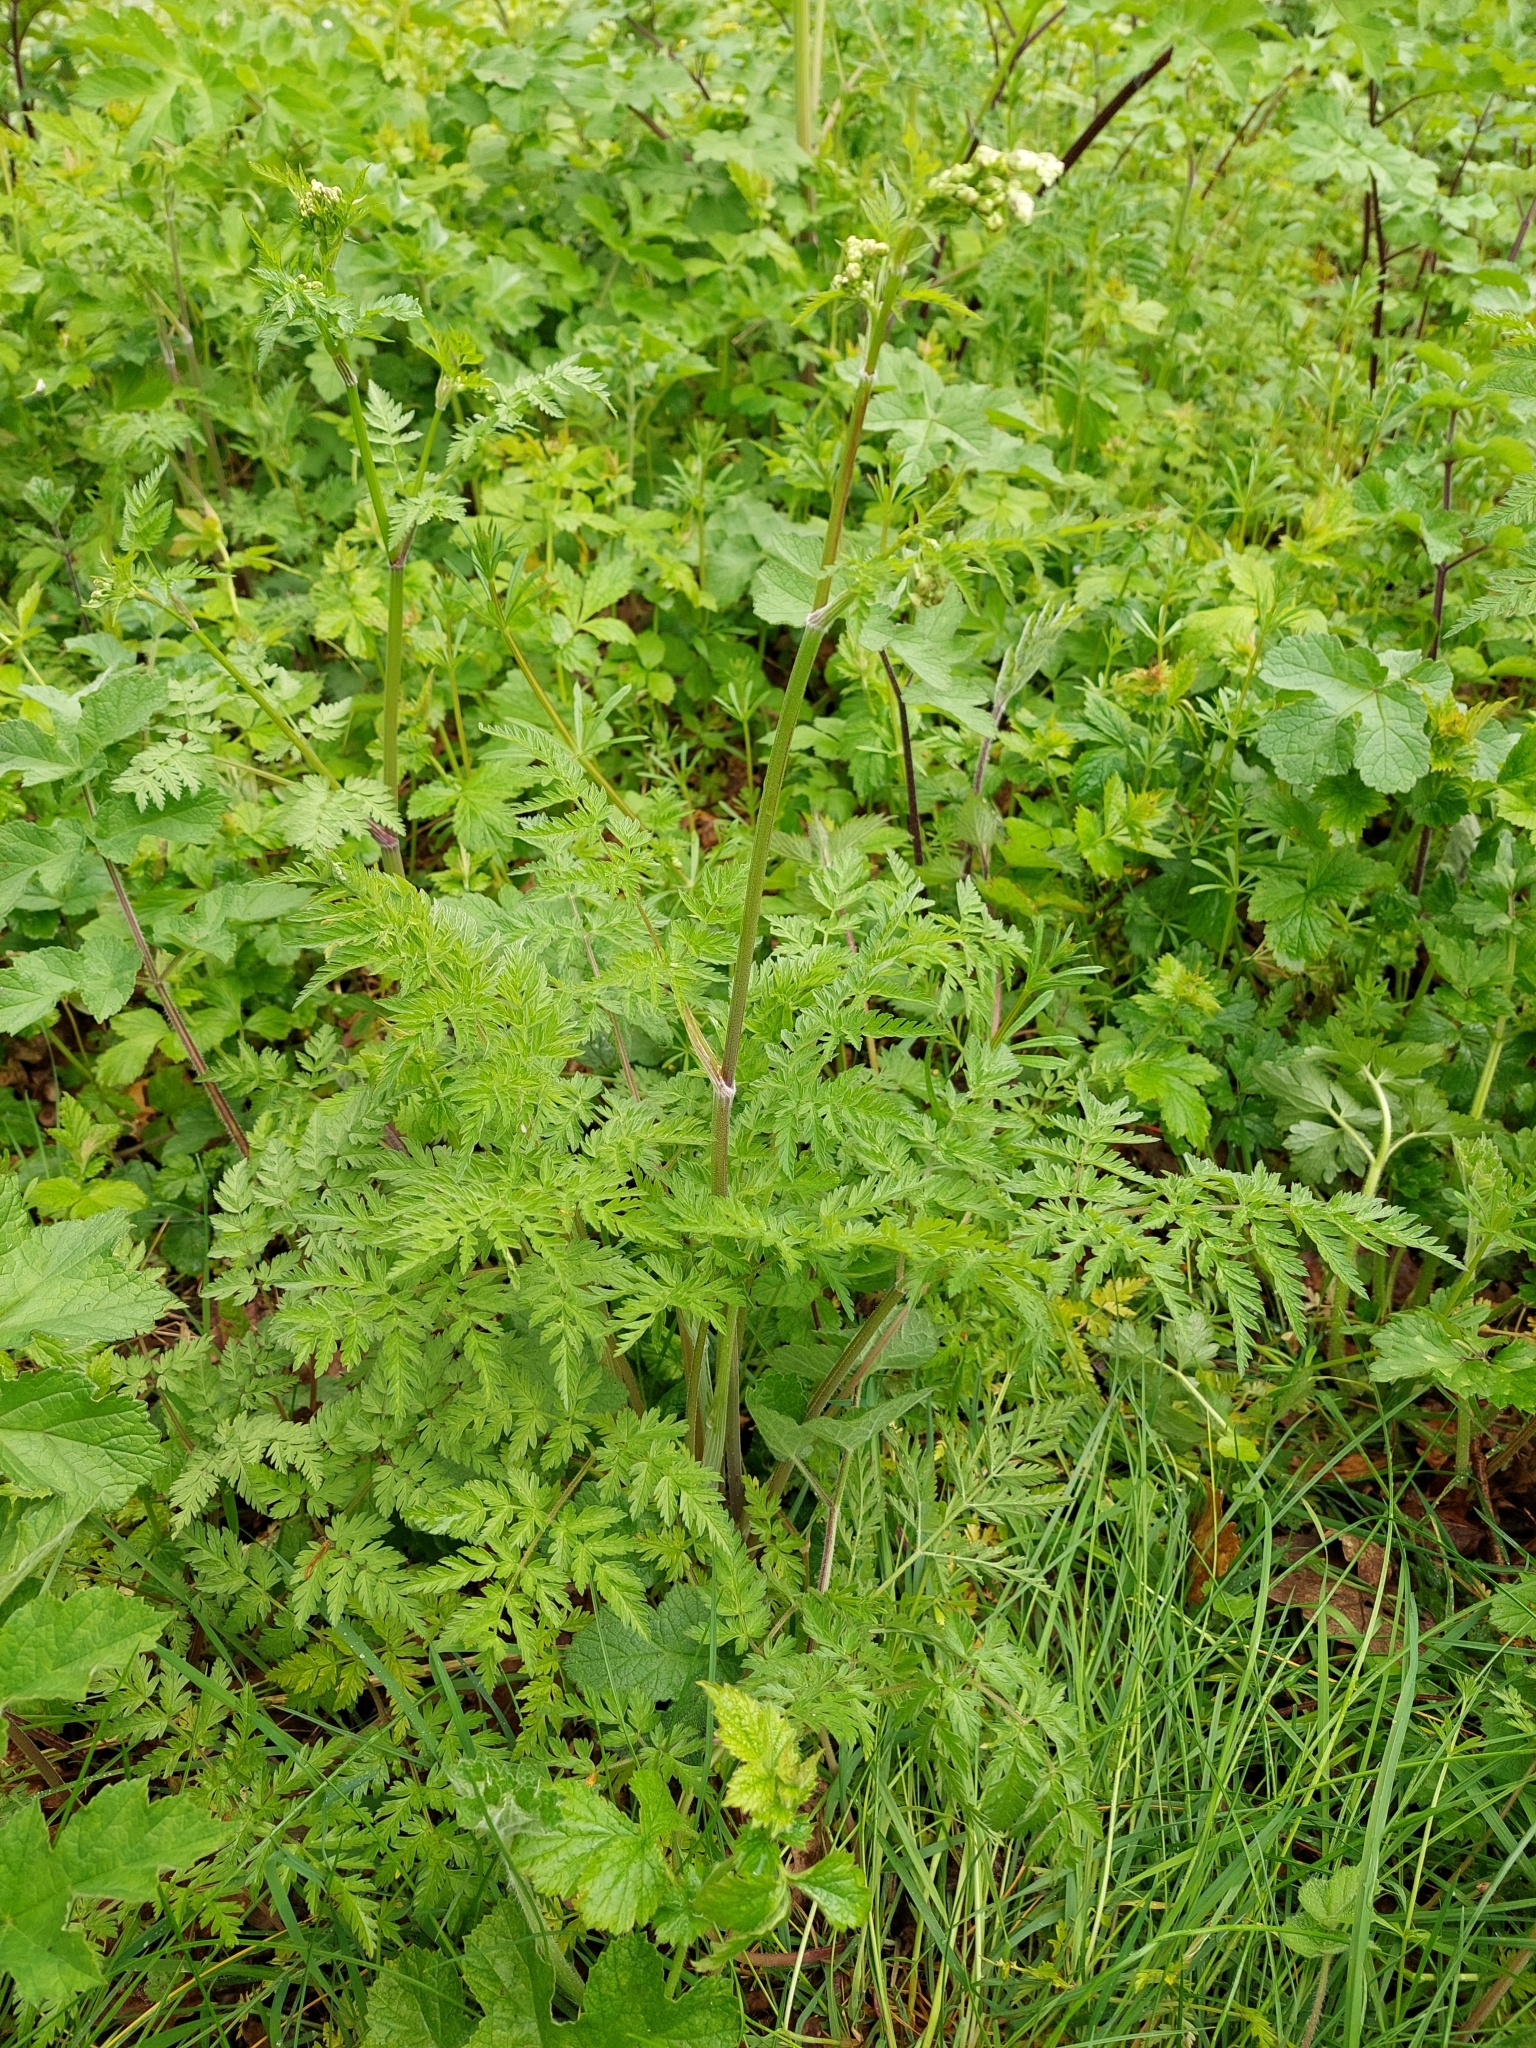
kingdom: Plantae
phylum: Tracheophyta
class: Magnoliopsida
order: Apiales
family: Apiaceae
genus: Anthriscus
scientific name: Anthriscus sylvestris
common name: Cow parsley
